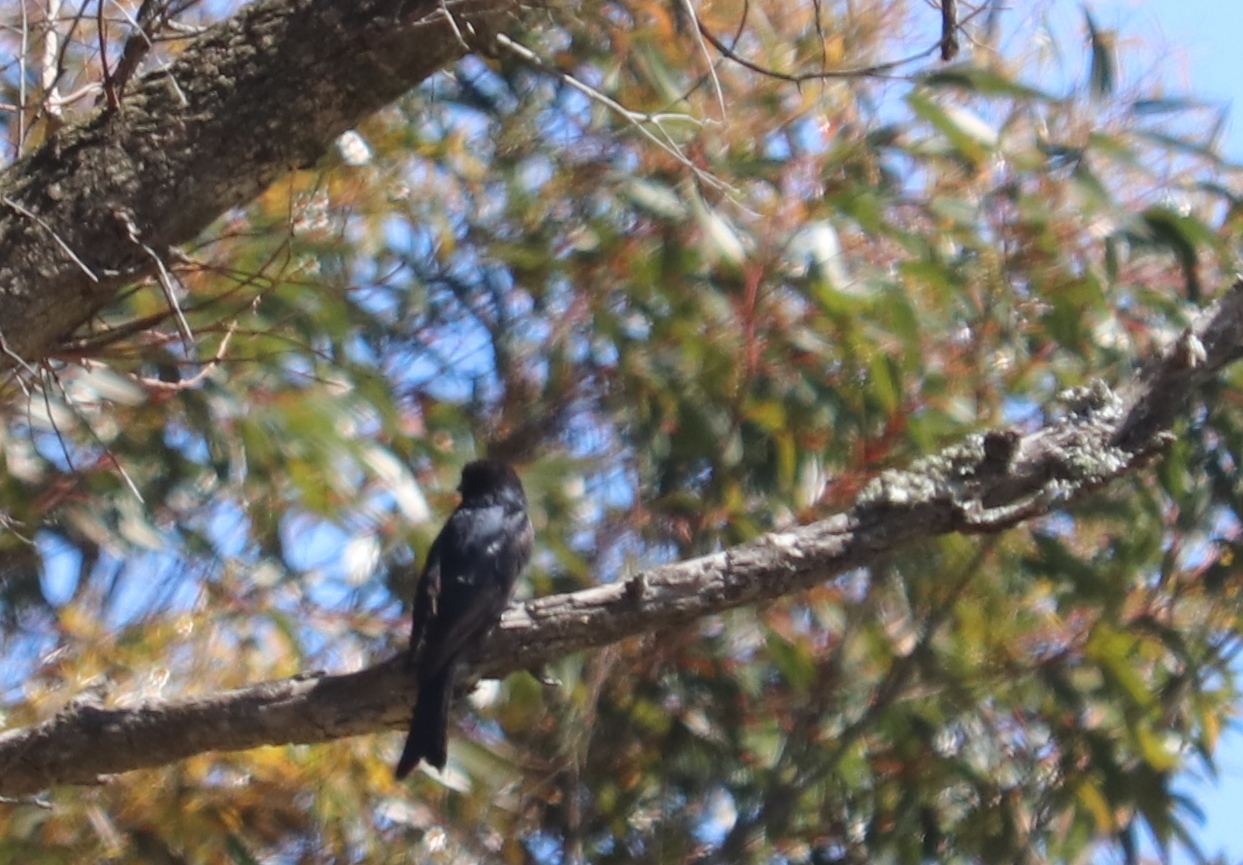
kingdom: Animalia
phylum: Chordata
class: Aves
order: Passeriformes
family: Dicruridae
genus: Dicrurus
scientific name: Dicrurus adsimilis
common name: Fork-tailed drongo
